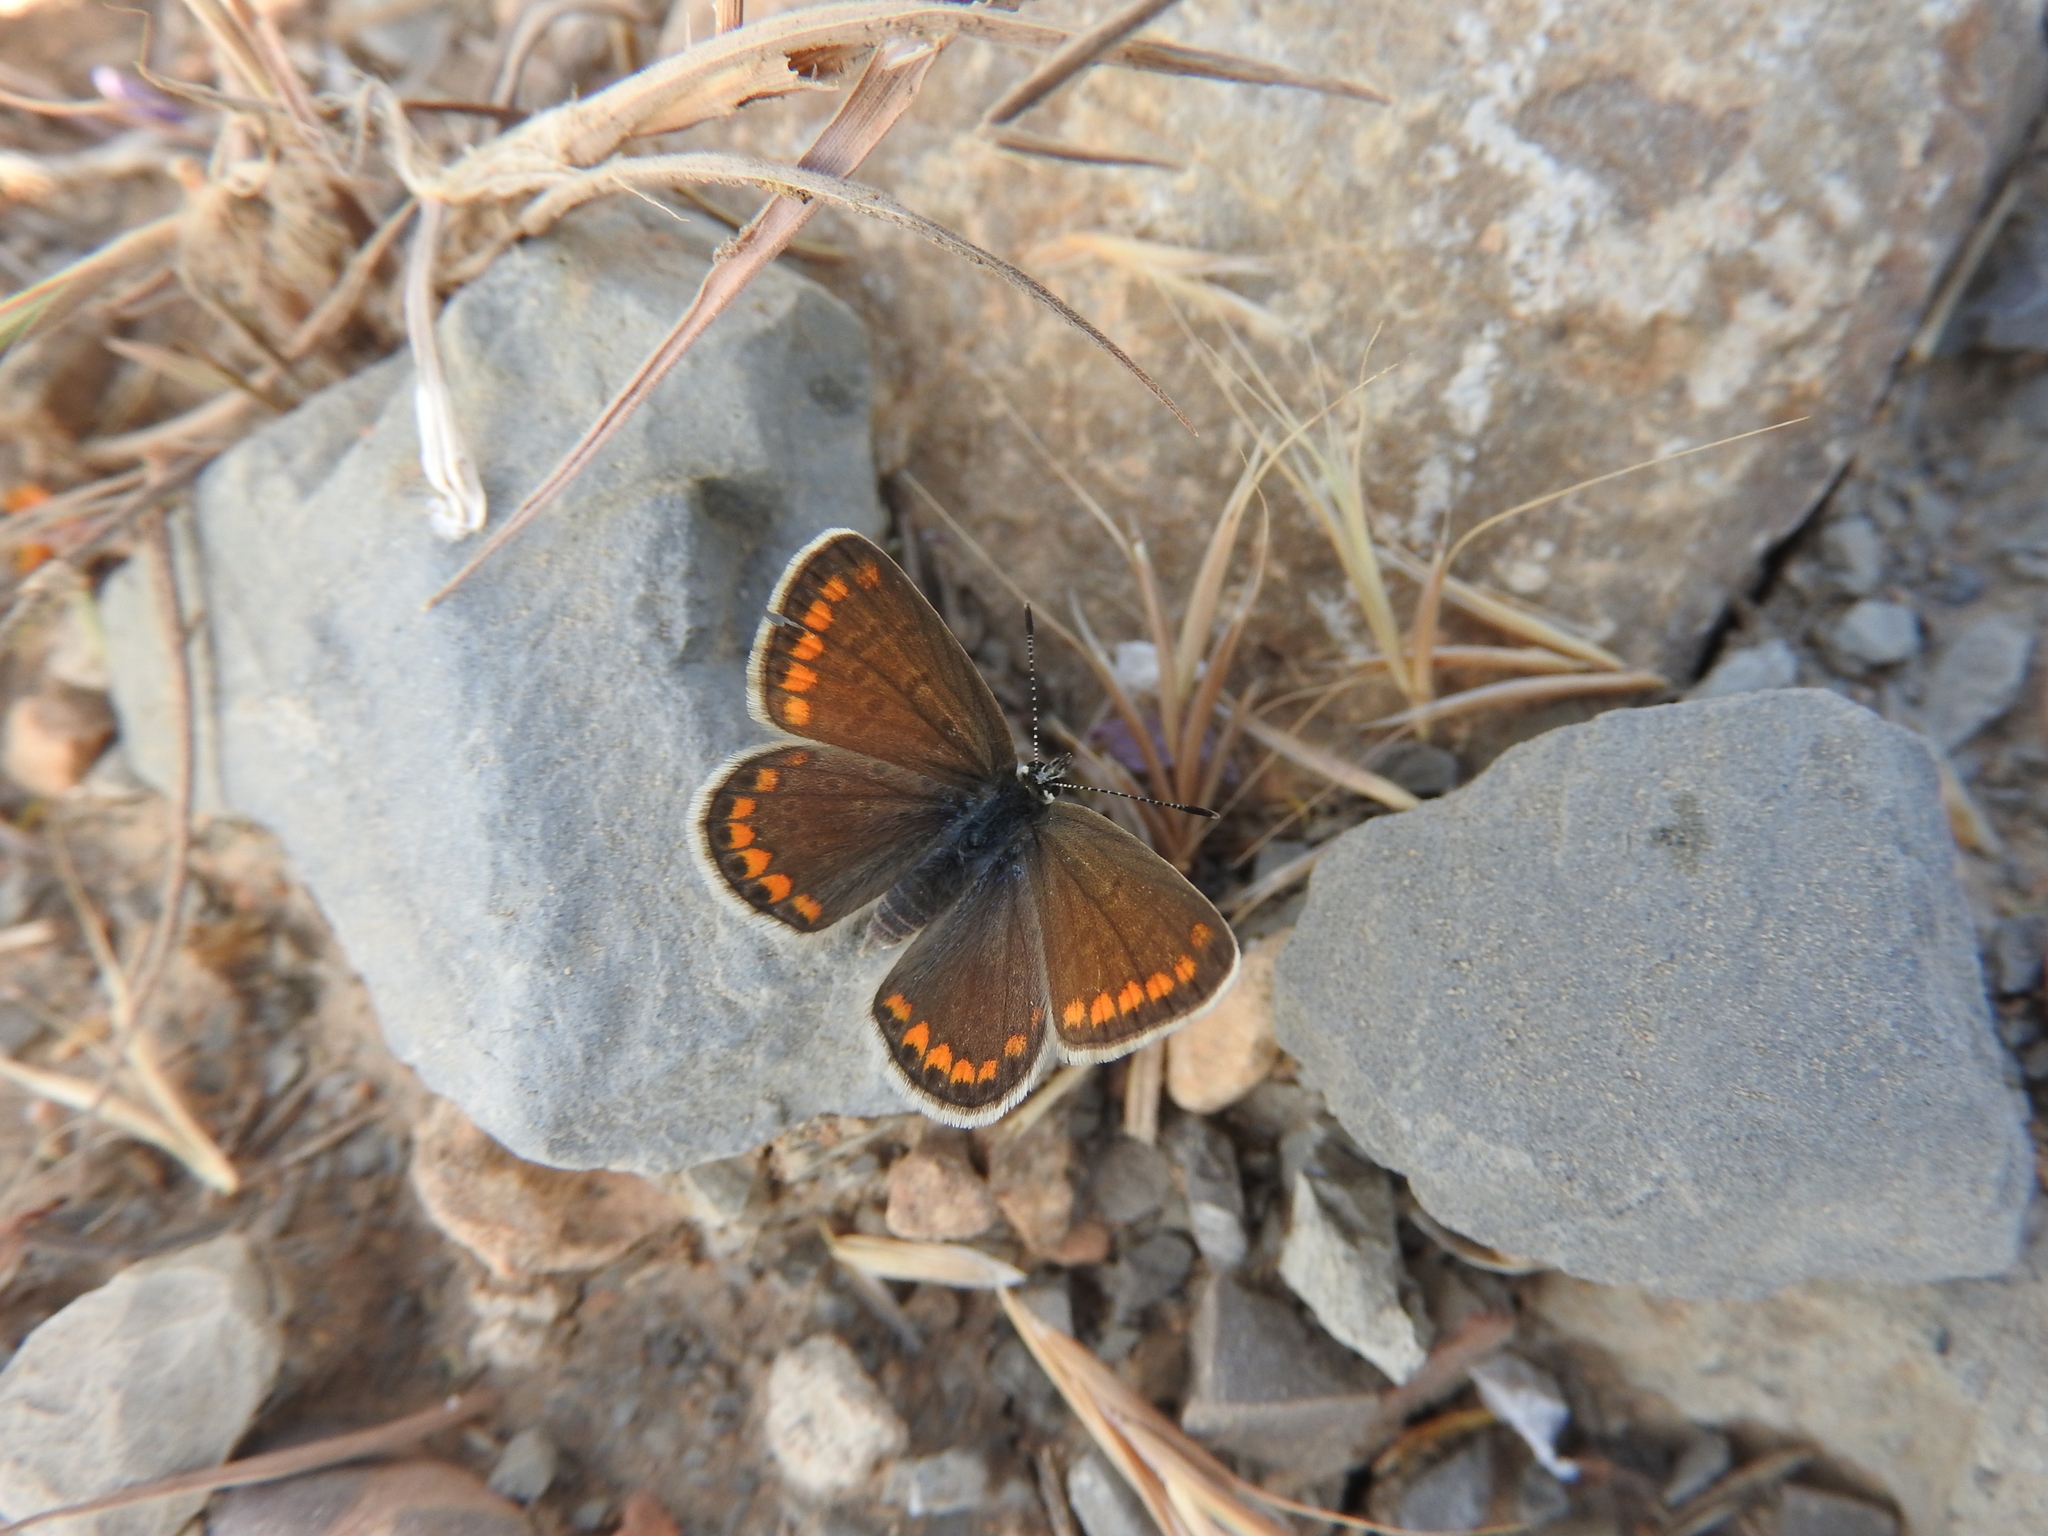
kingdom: Animalia
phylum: Arthropoda
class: Insecta
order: Lepidoptera
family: Lycaenidae
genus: Polyommatus
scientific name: Polyommatus celina
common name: Austaut's blue
